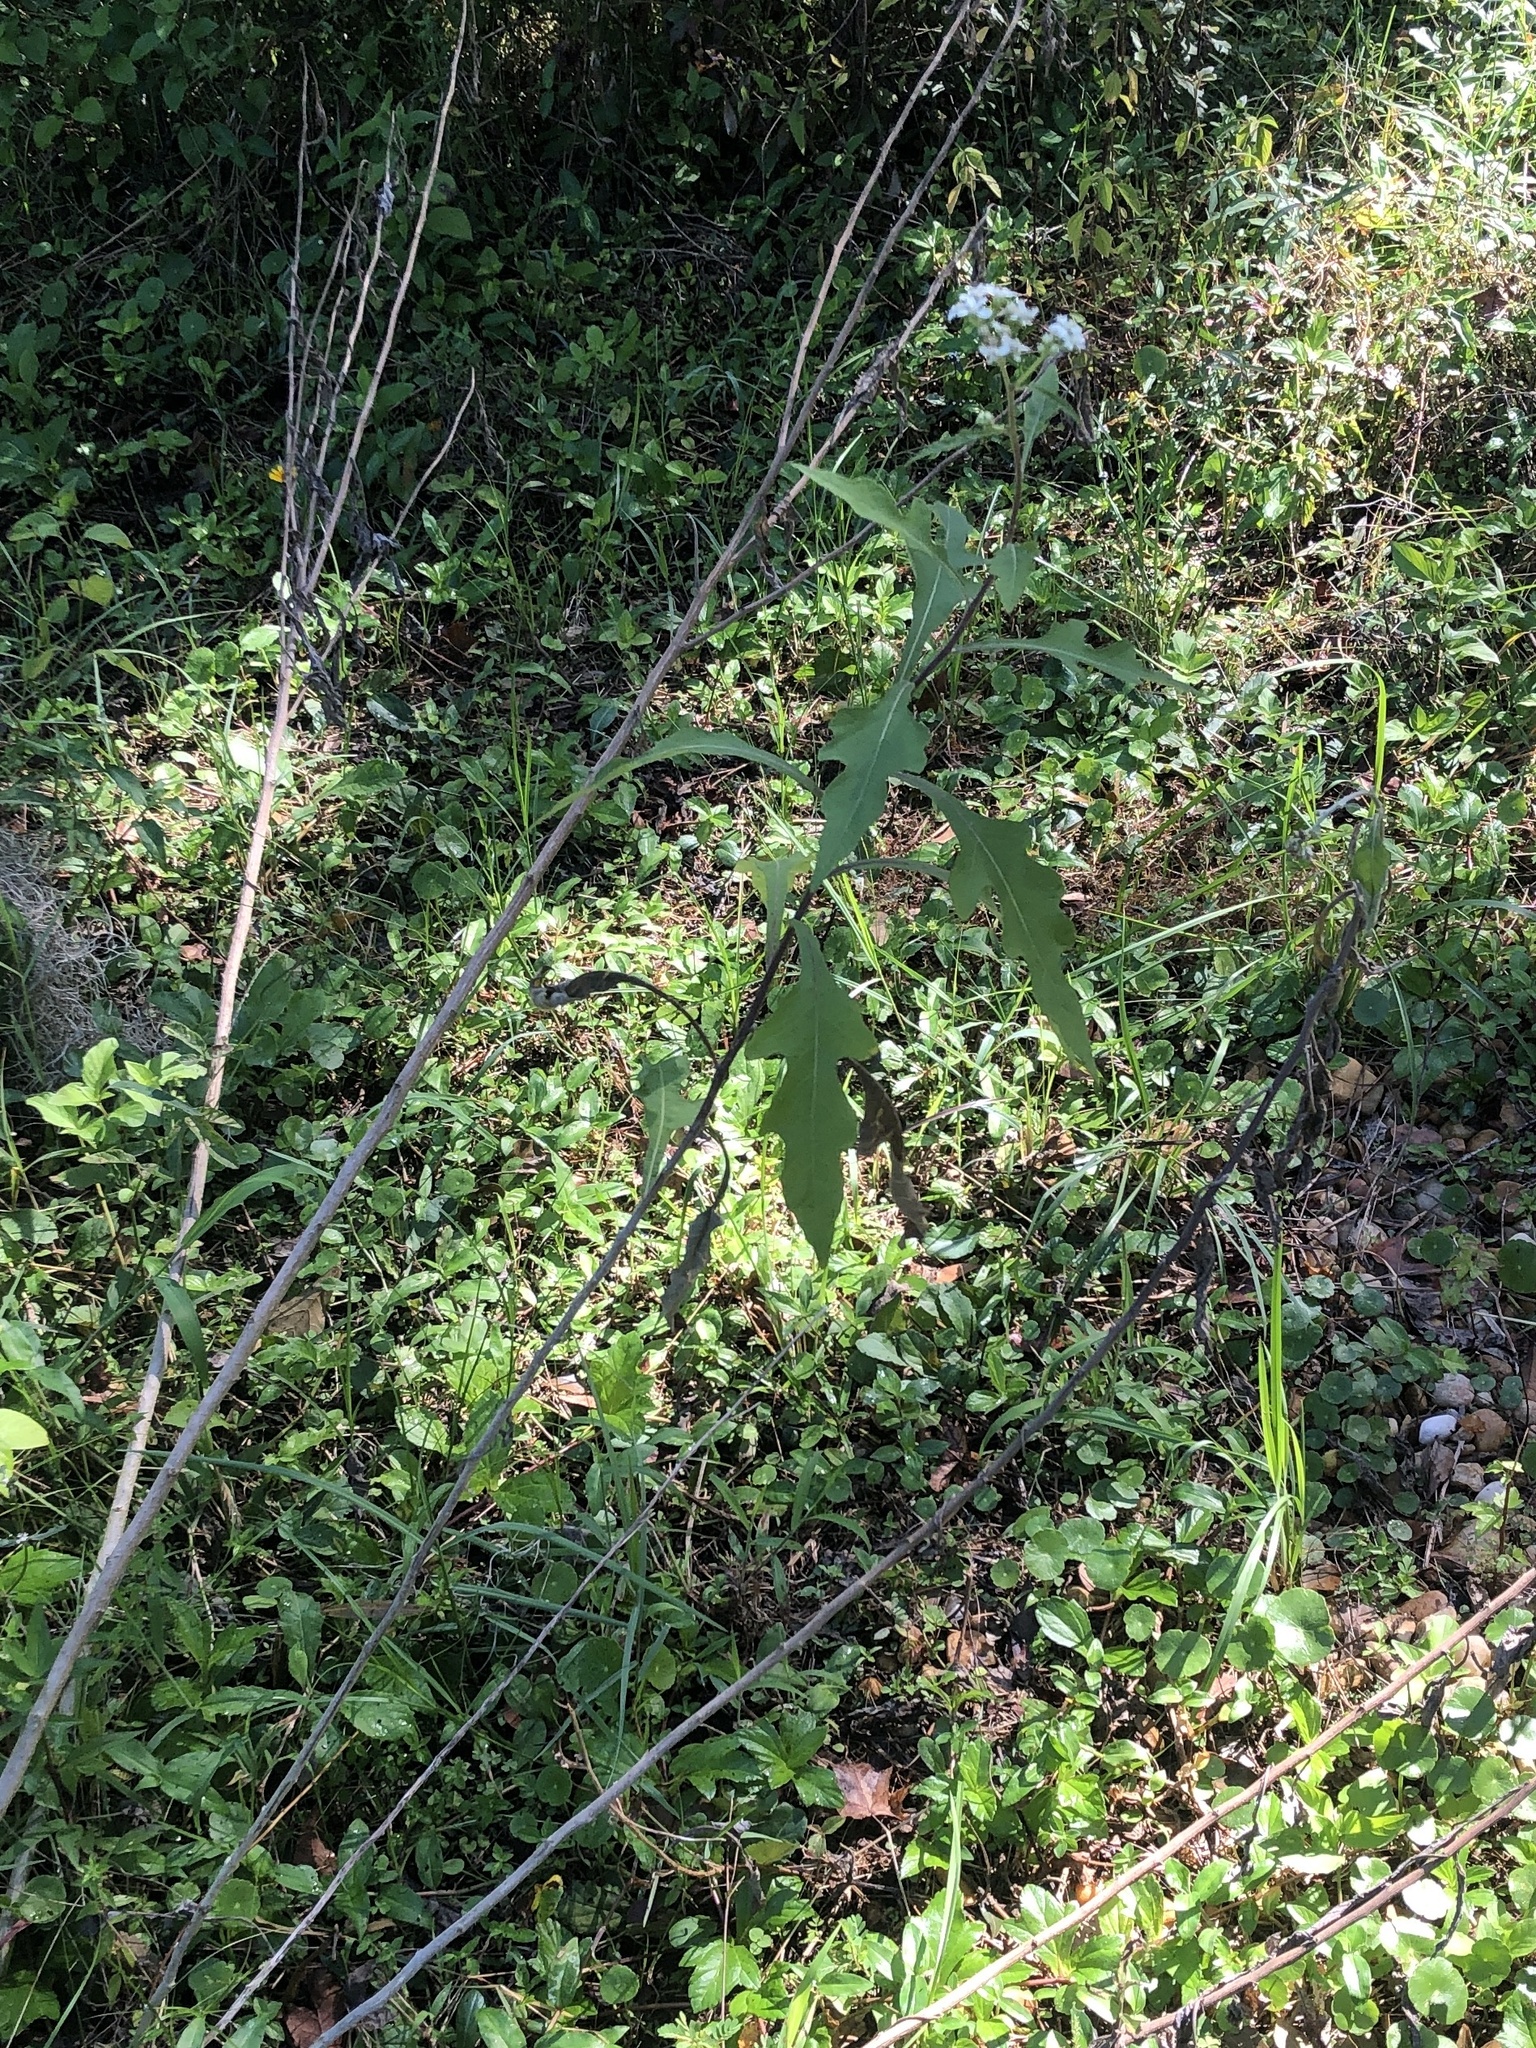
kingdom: Plantae
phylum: Tracheophyta
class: Magnoliopsida
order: Asterales
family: Asteraceae
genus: Verbesina
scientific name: Verbesina virginica
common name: Frostweed
